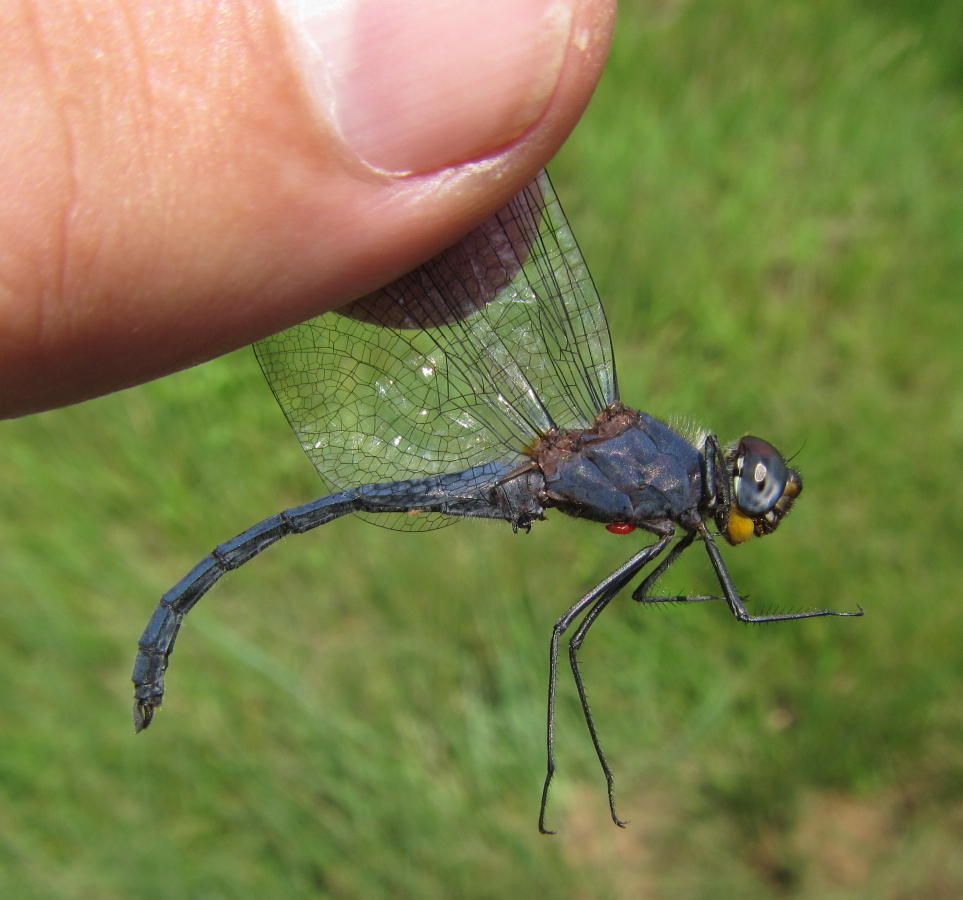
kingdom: Animalia
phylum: Arthropoda
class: Insecta
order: Odonata
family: Libellulidae
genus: Trithemis
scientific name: Trithemis furva
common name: Dark dropwing
